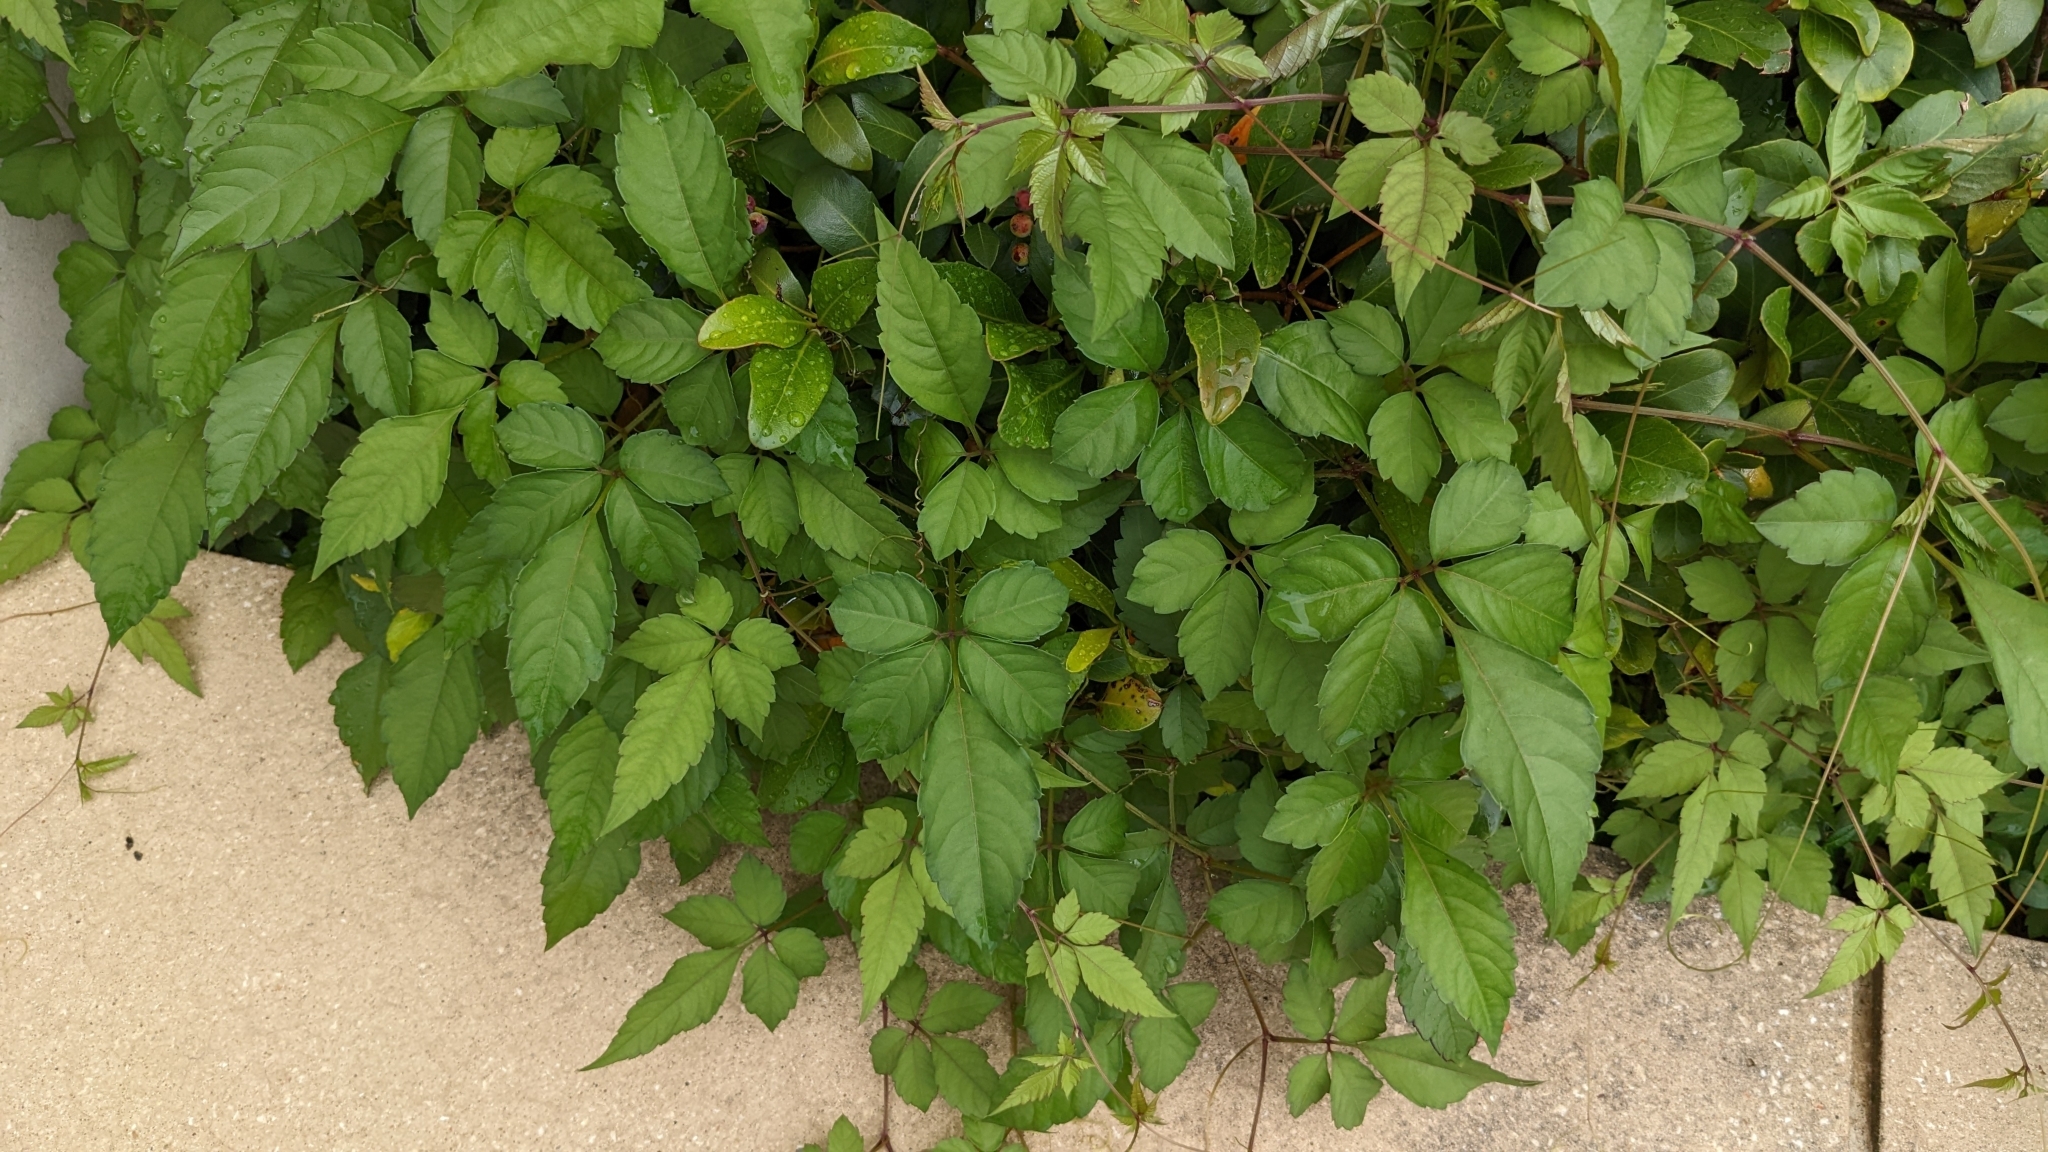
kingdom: Plantae
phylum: Tracheophyta
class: Magnoliopsida
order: Vitales
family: Vitaceae
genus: Causonis
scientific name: Causonis japonica
